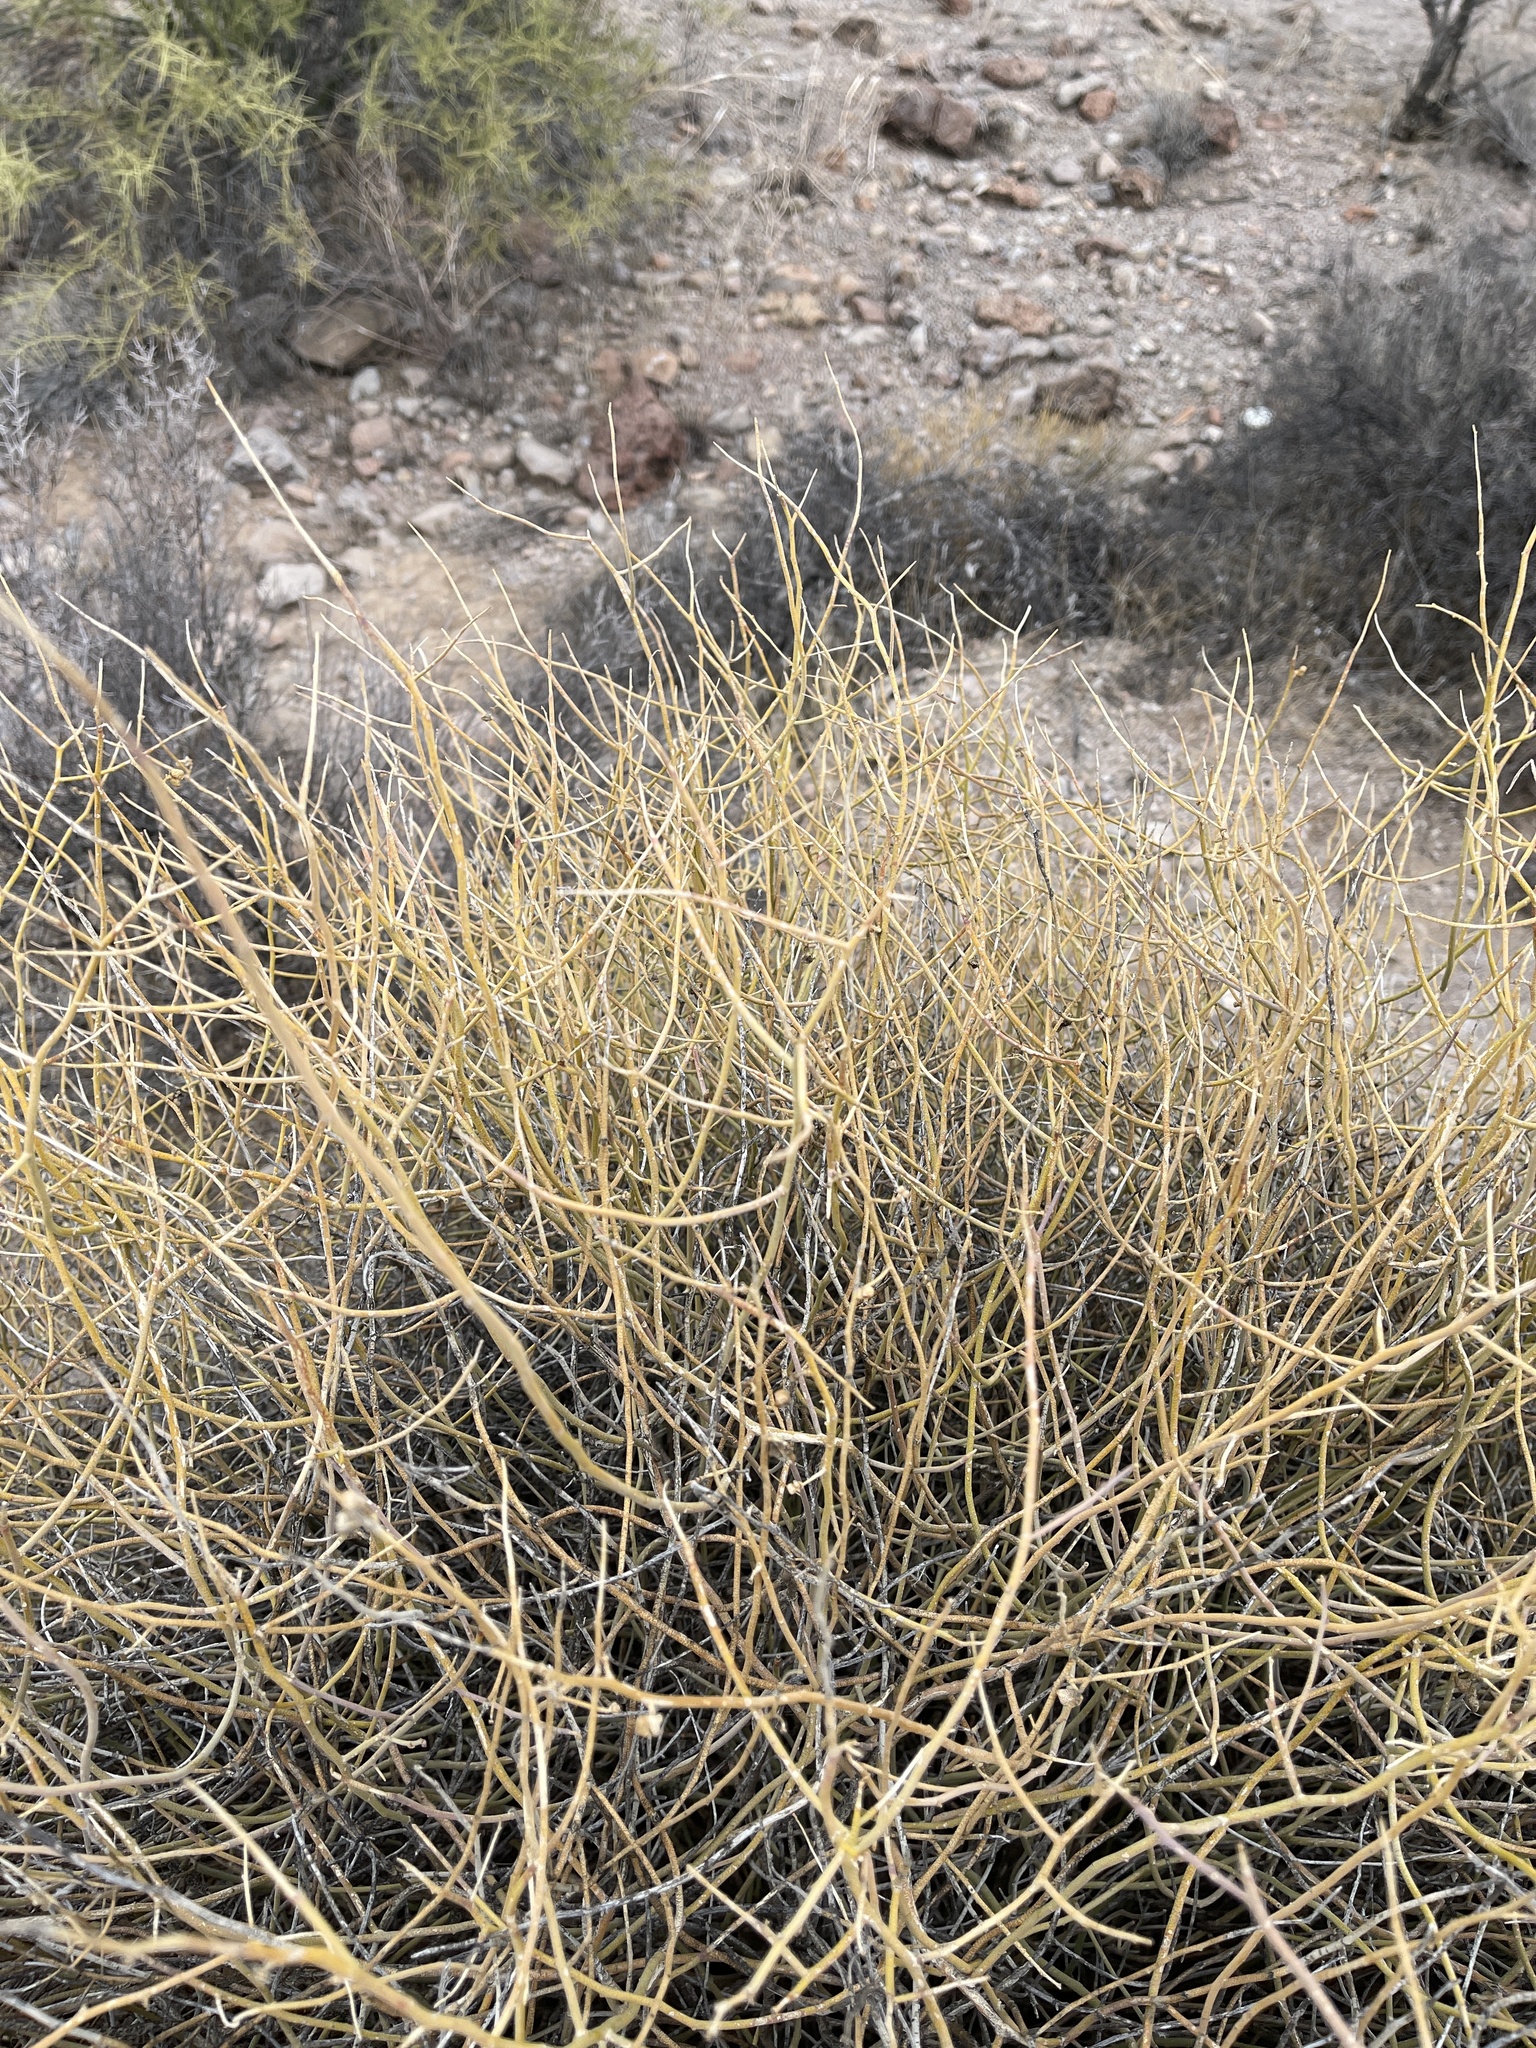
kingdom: Plantae
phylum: Tracheophyta
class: Magnoliopsida
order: Sapindales
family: Rutaceae
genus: Thamnosma
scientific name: Thamnosma montana
